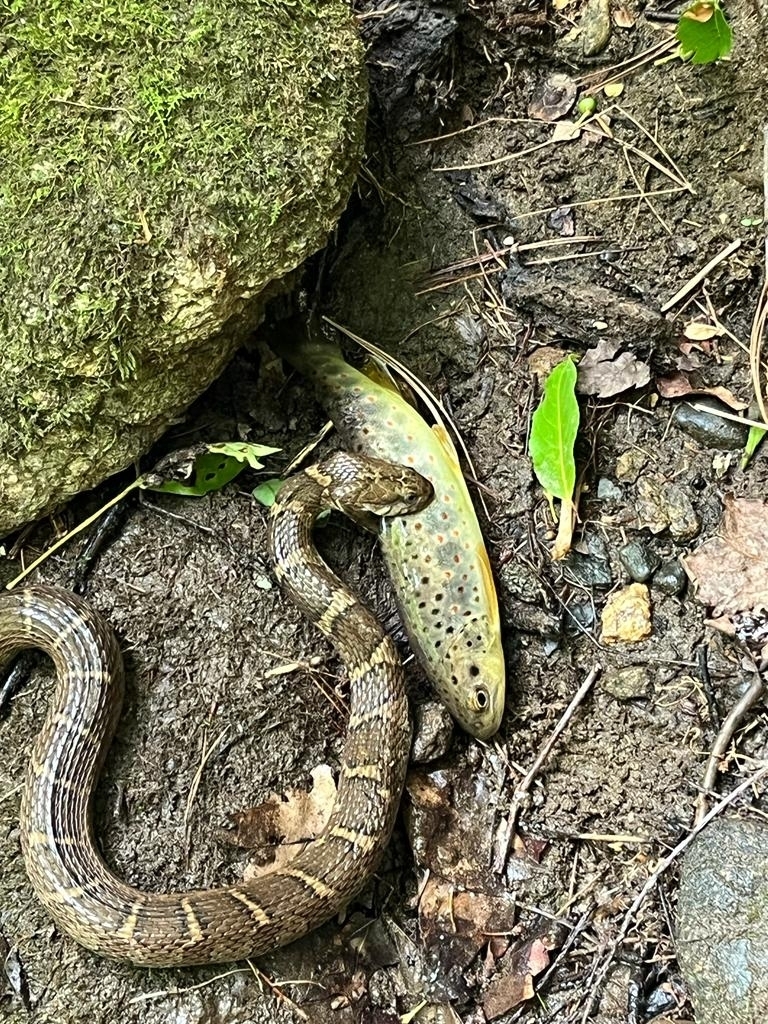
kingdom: Animalia
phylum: Chordata
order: Salmoniformes
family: Salmonidae
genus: Salmo
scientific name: Salmo trutta
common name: Brown trout
